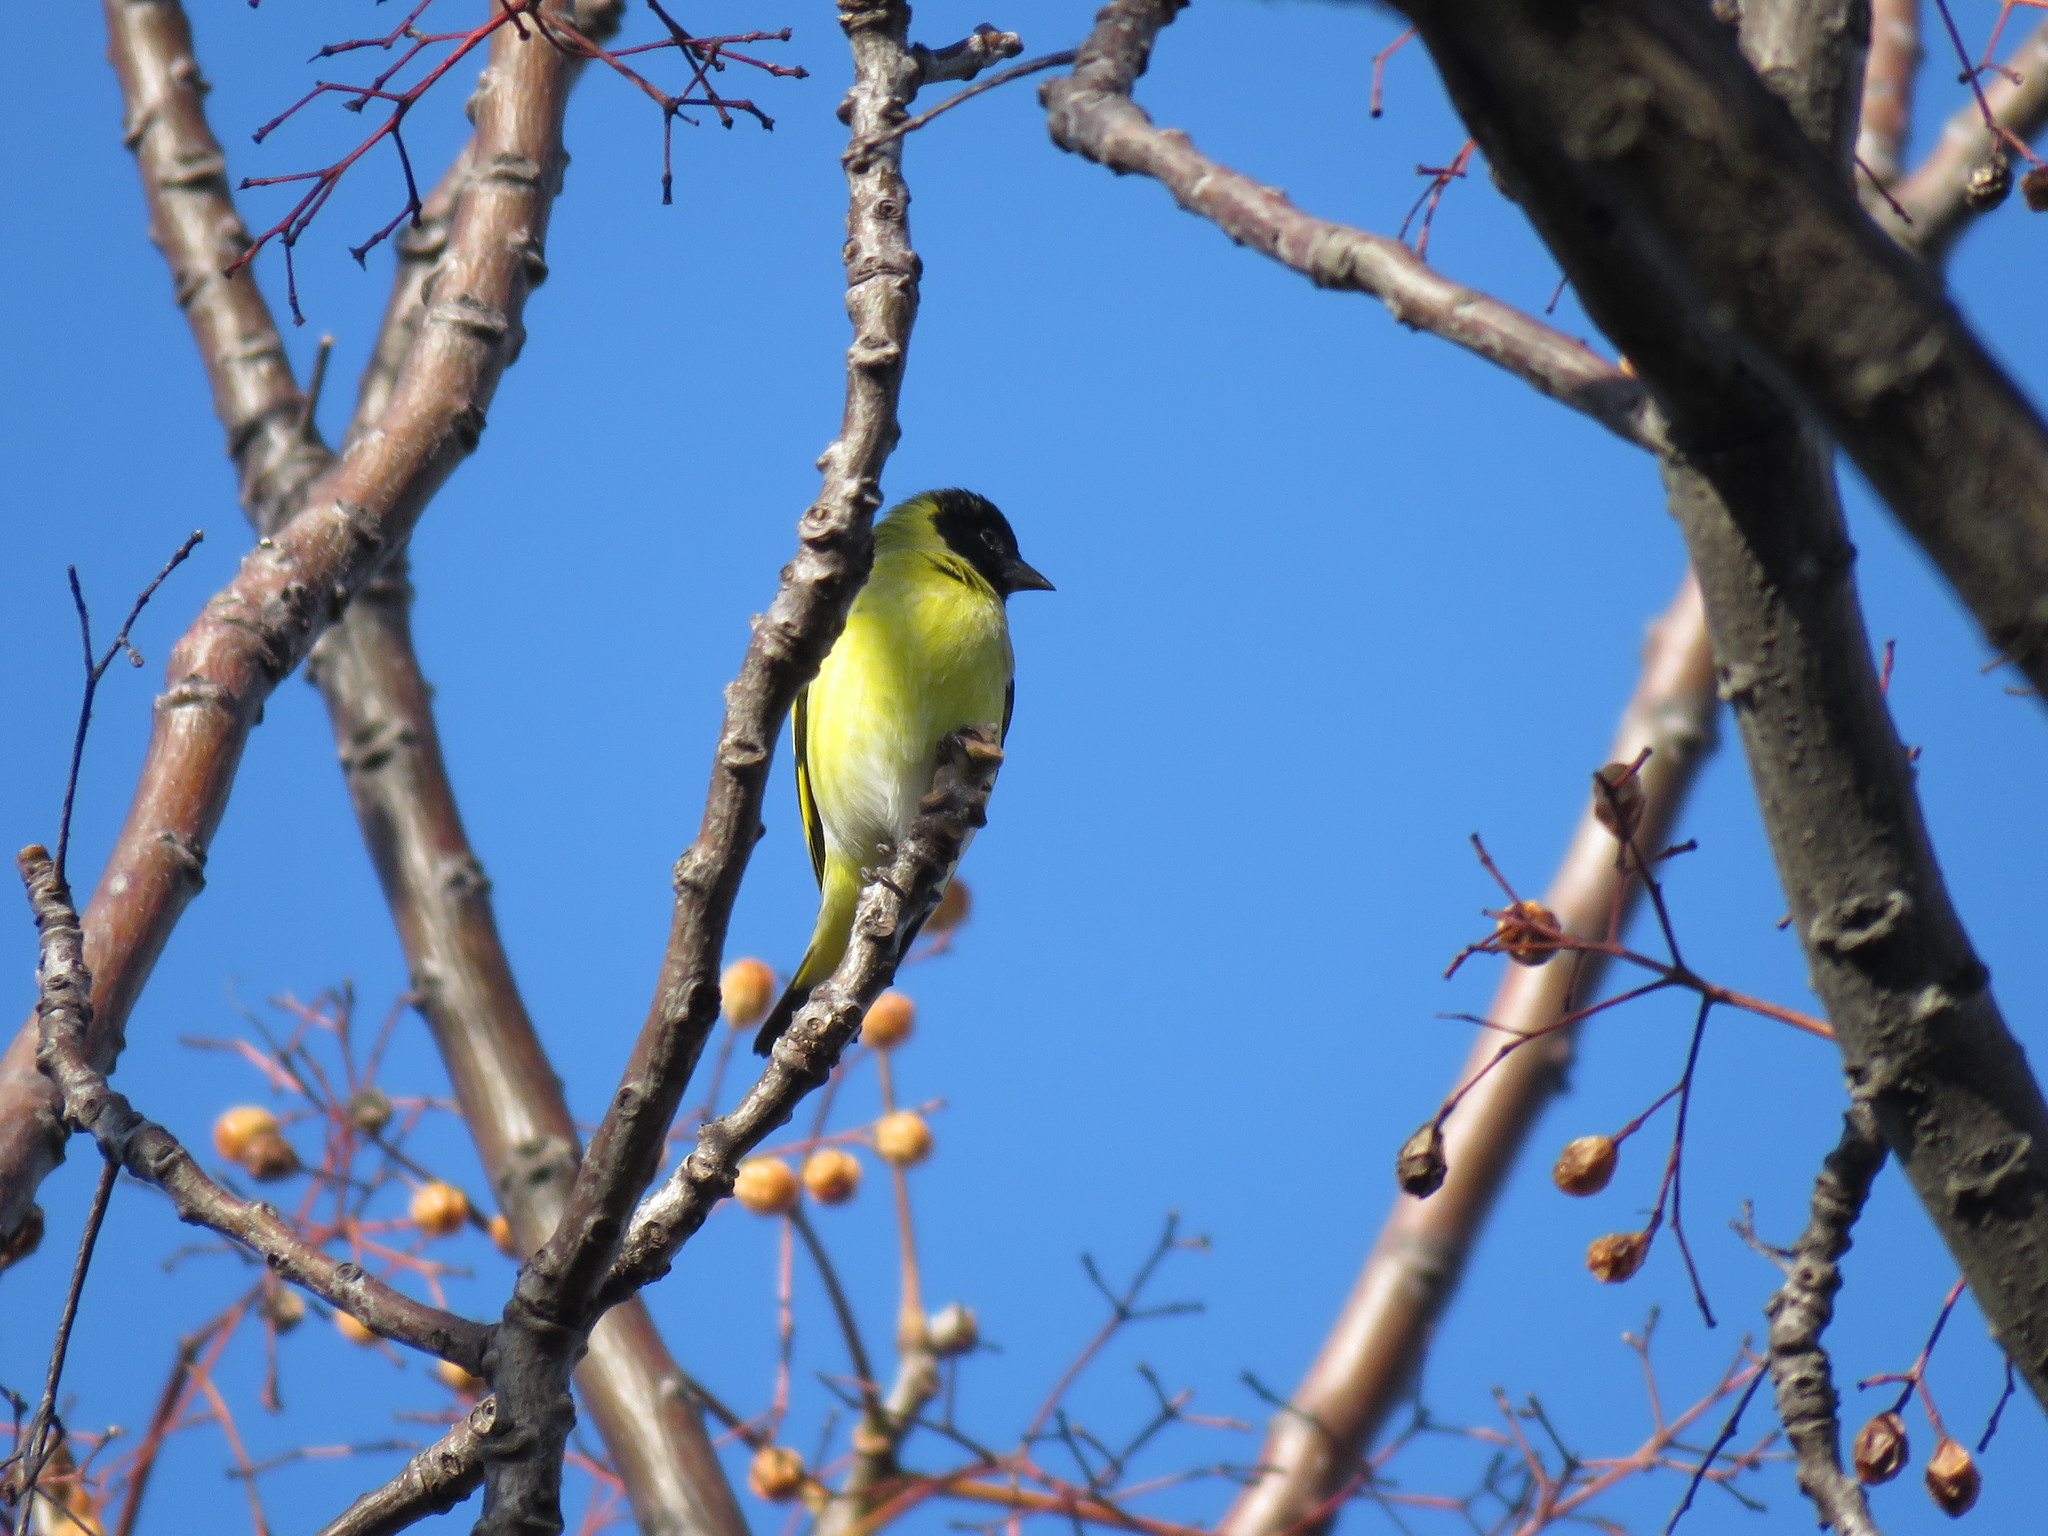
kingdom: Animalia
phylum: Chordata
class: Aves
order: Passeriformes
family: Fringillidae
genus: Spinus
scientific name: Spinus magellanicus
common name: Hooded siskin
